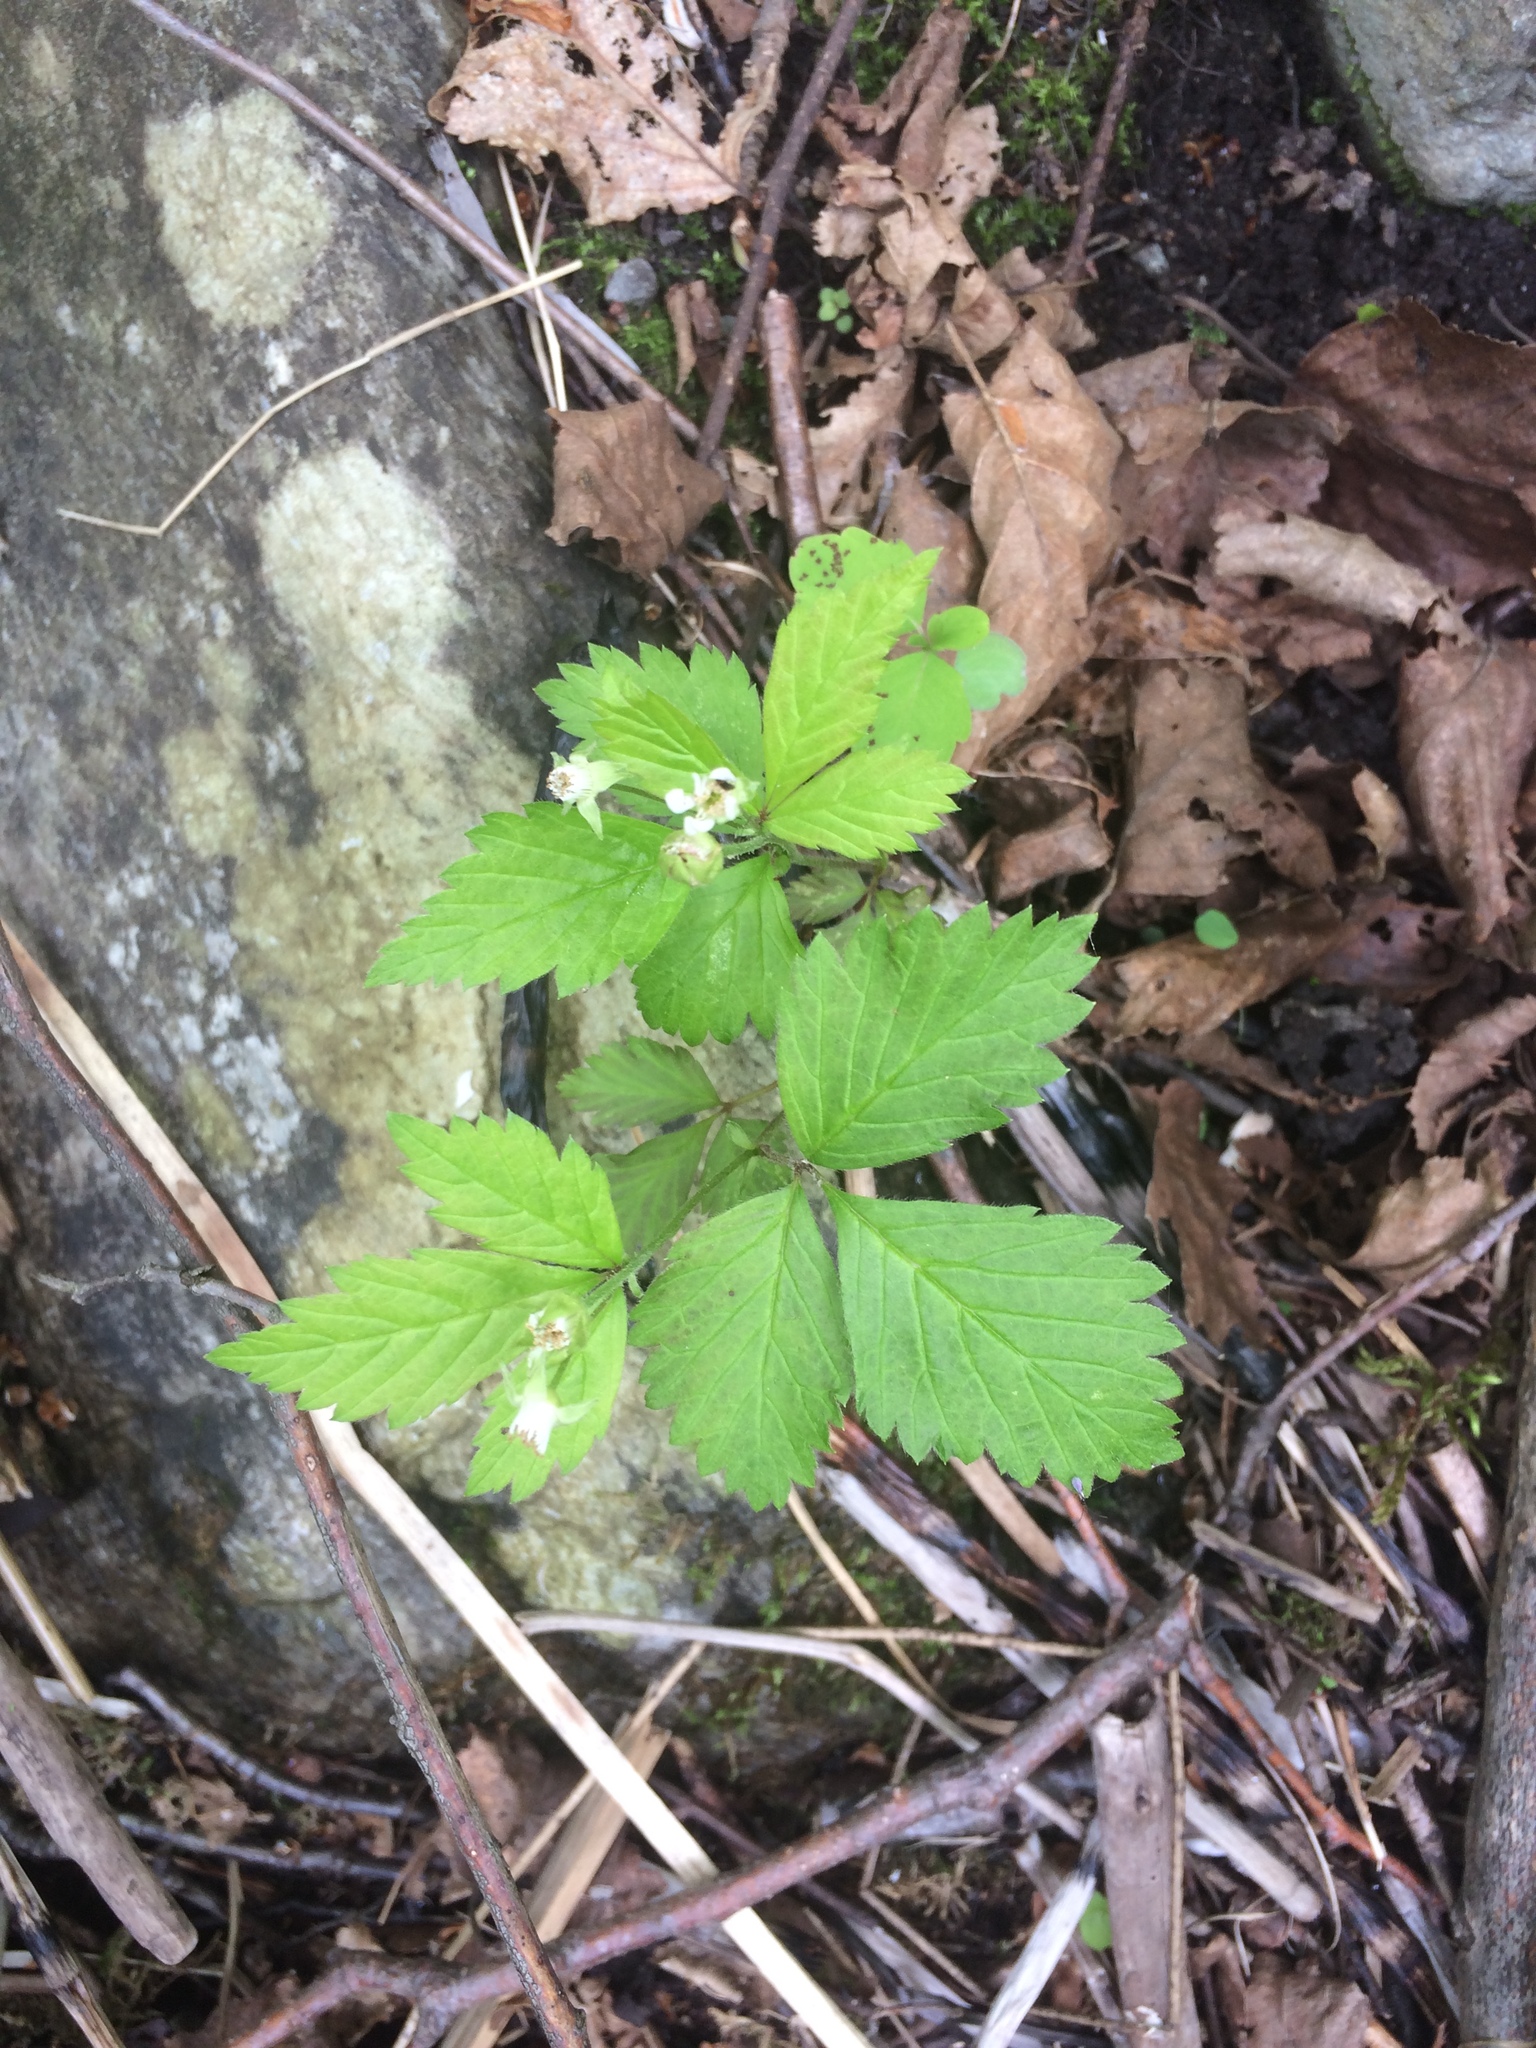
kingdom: Plantae
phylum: Tracheophyta
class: Magnoliopsida
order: Rosales
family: Rosaceae
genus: Rubus
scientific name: Rubus pubescens
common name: Dwarf raspberry
